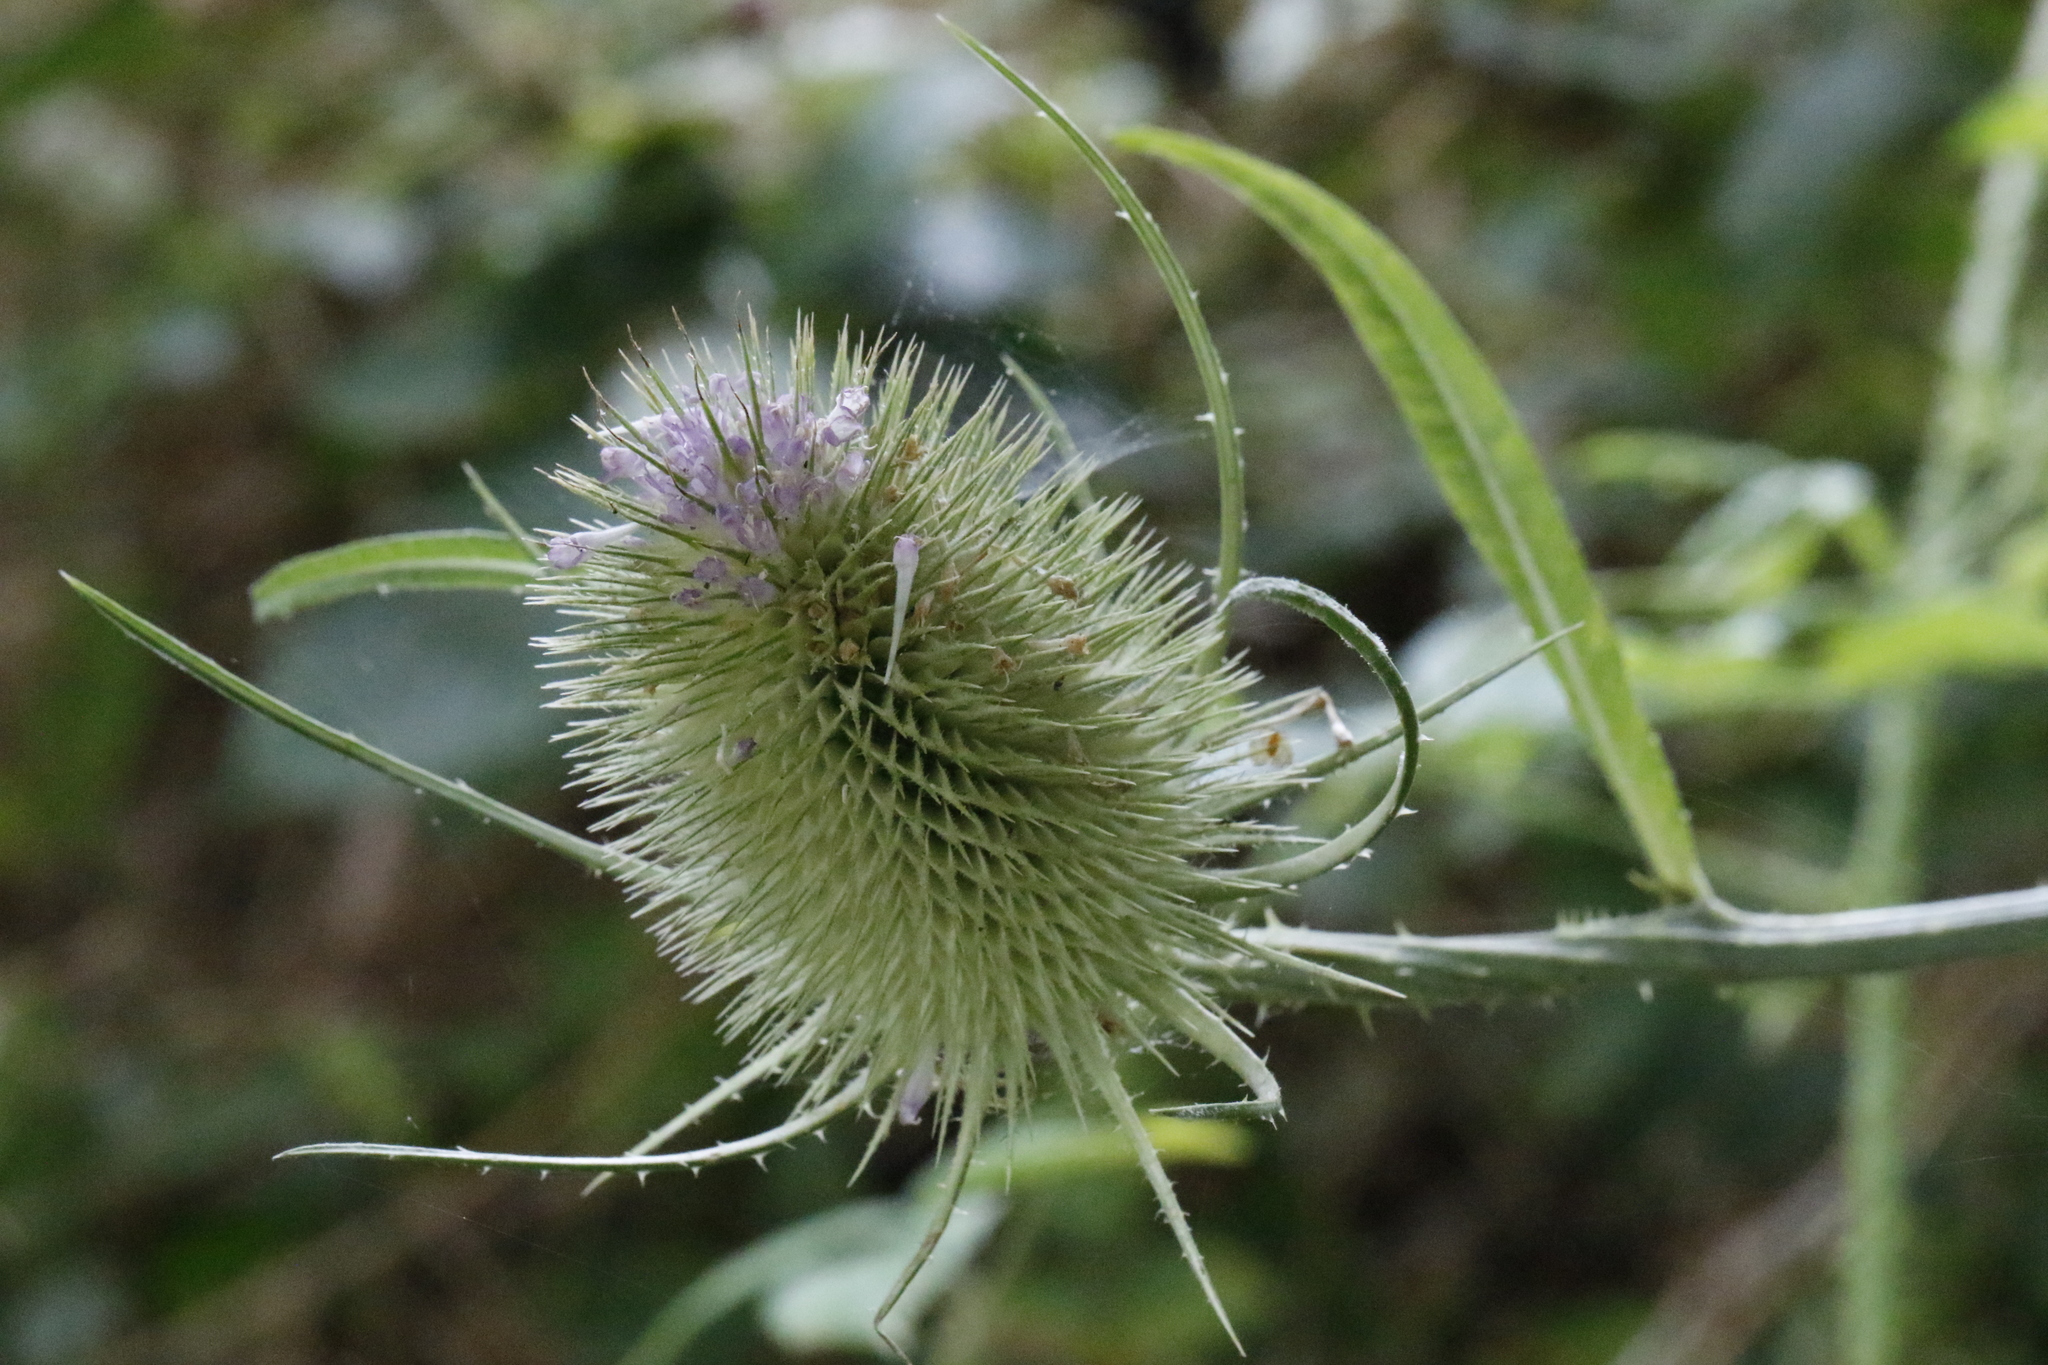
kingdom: Plantae
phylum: Tracheophyta
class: Magnoliopsida
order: Dipsacales
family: Caprifoliaceae
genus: Dipsacus
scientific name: Dipsacus fullonum
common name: Teasel
